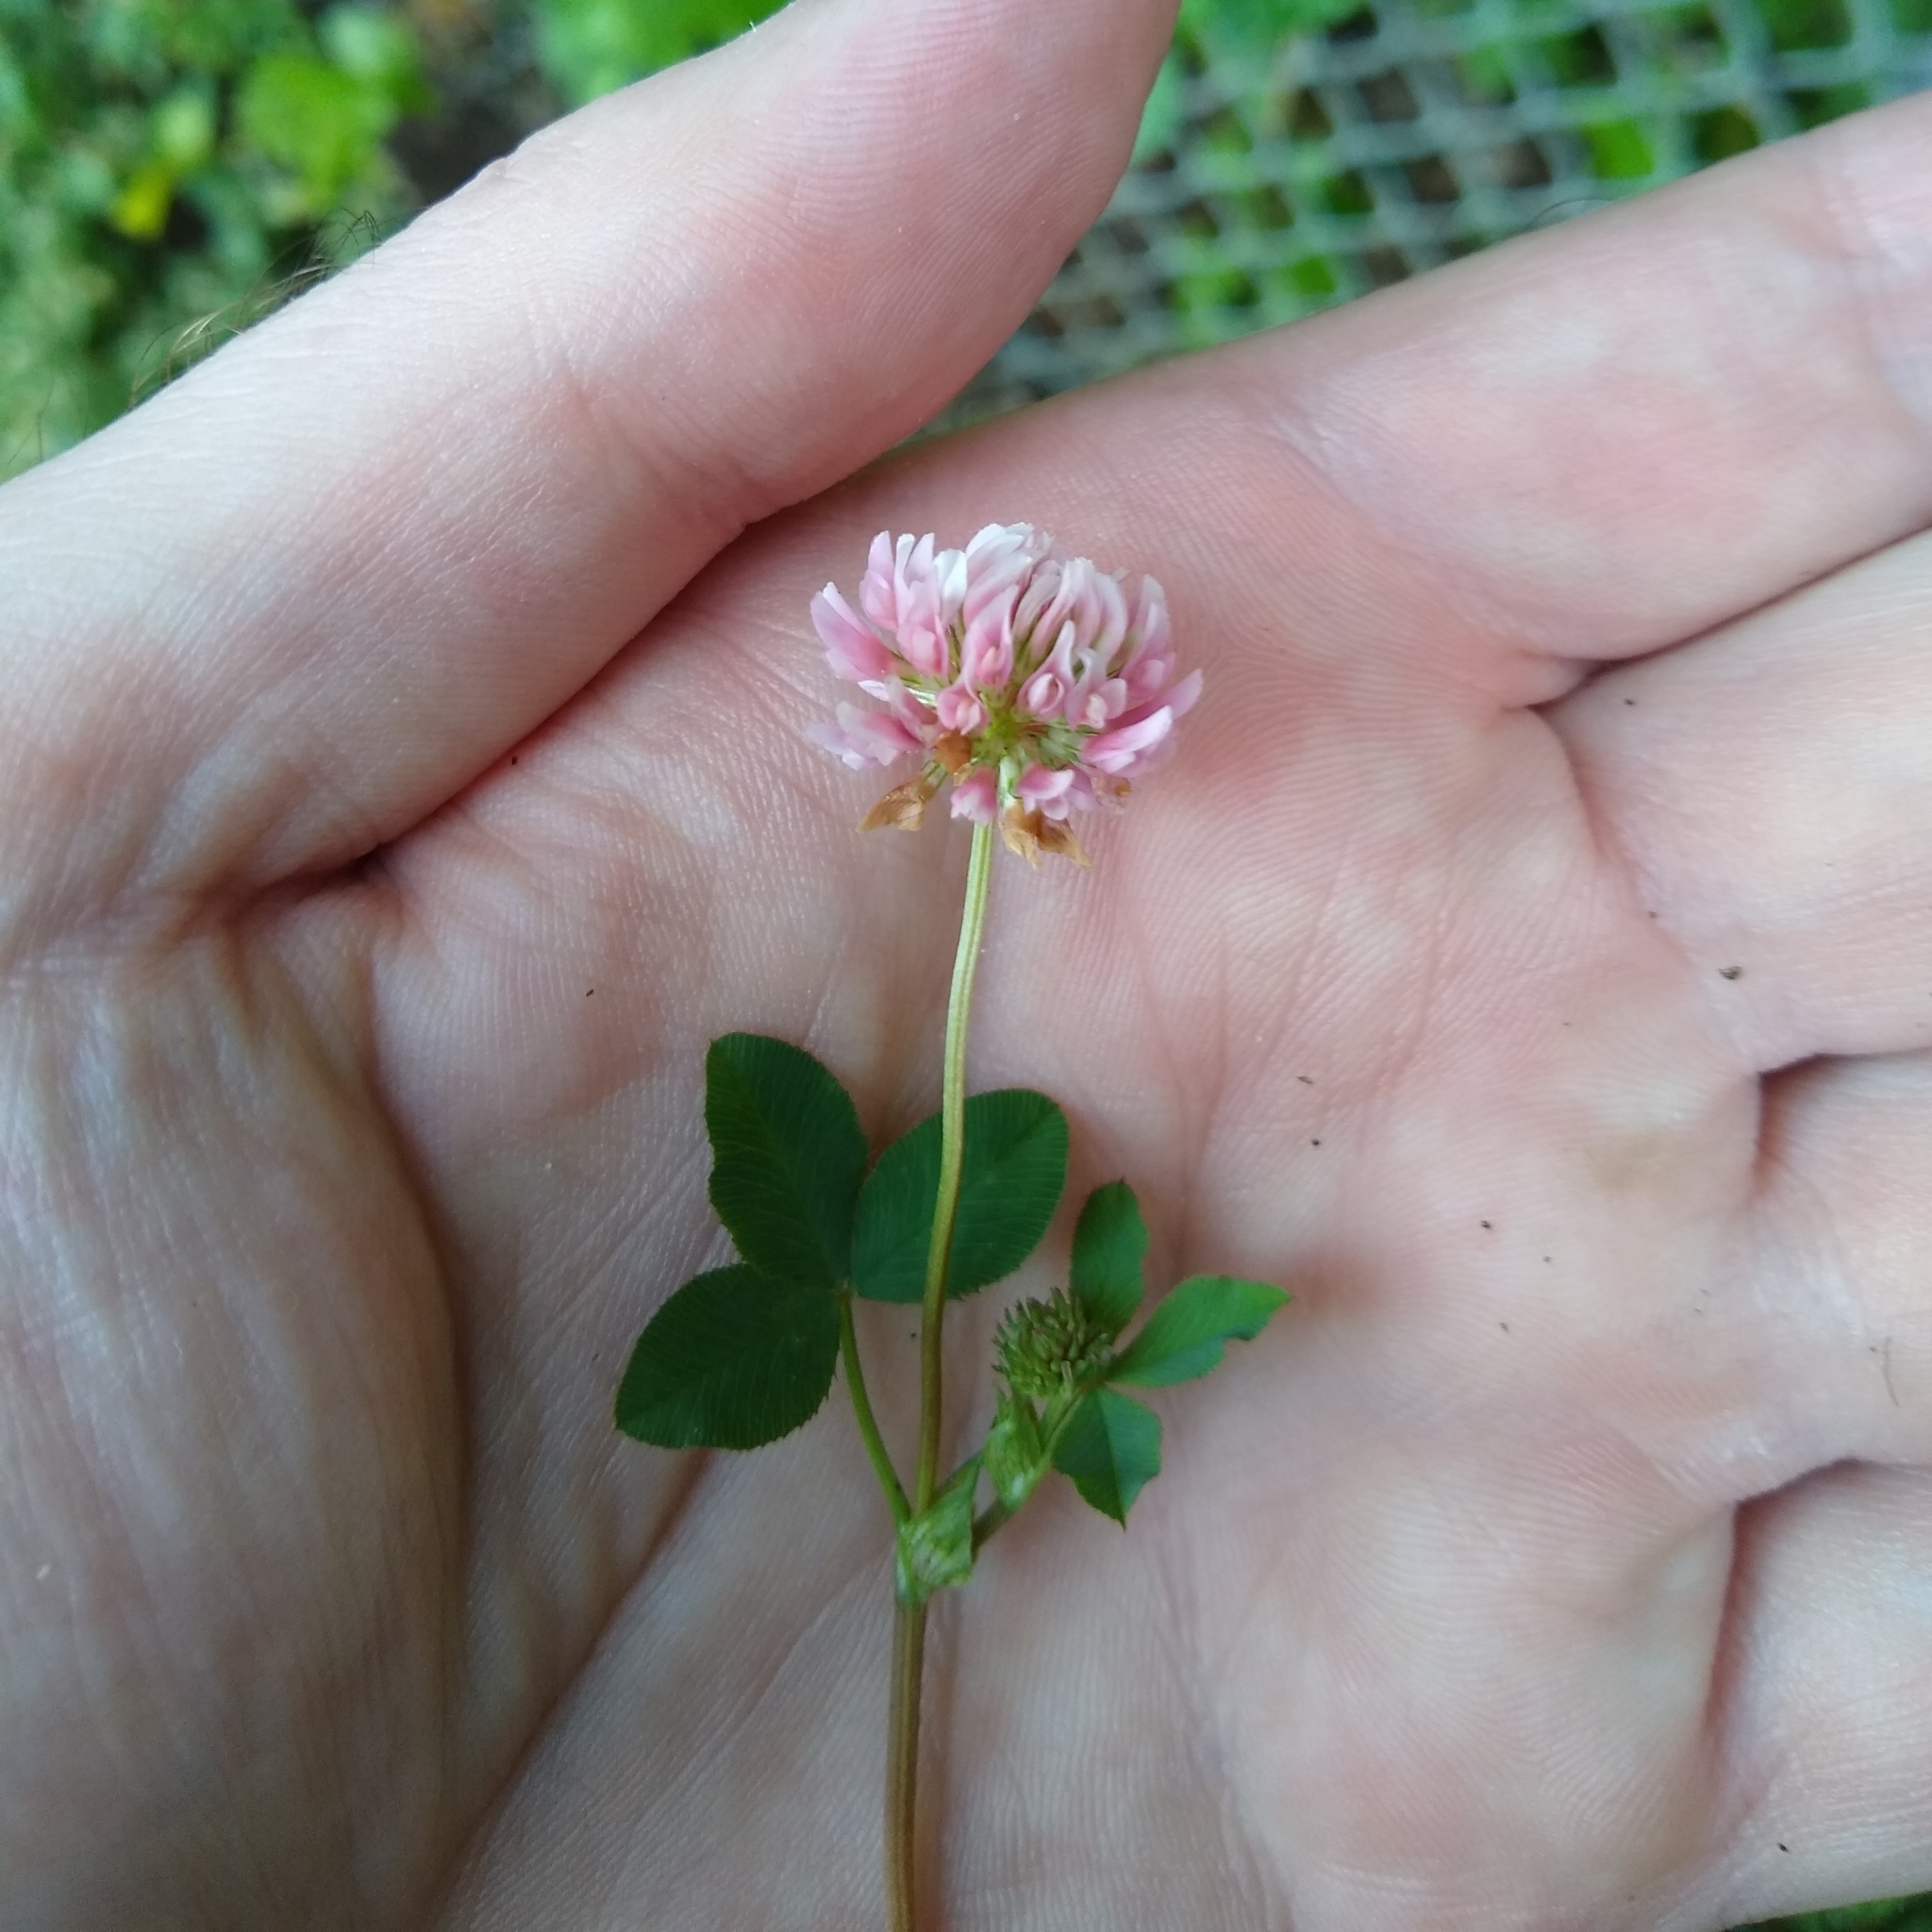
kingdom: Plantae
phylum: Tracheophyta
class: Magnoliopsida
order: Fabales
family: Fabaceae
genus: Trifolium
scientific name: Trifolium hybridum
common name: Alsike clover
